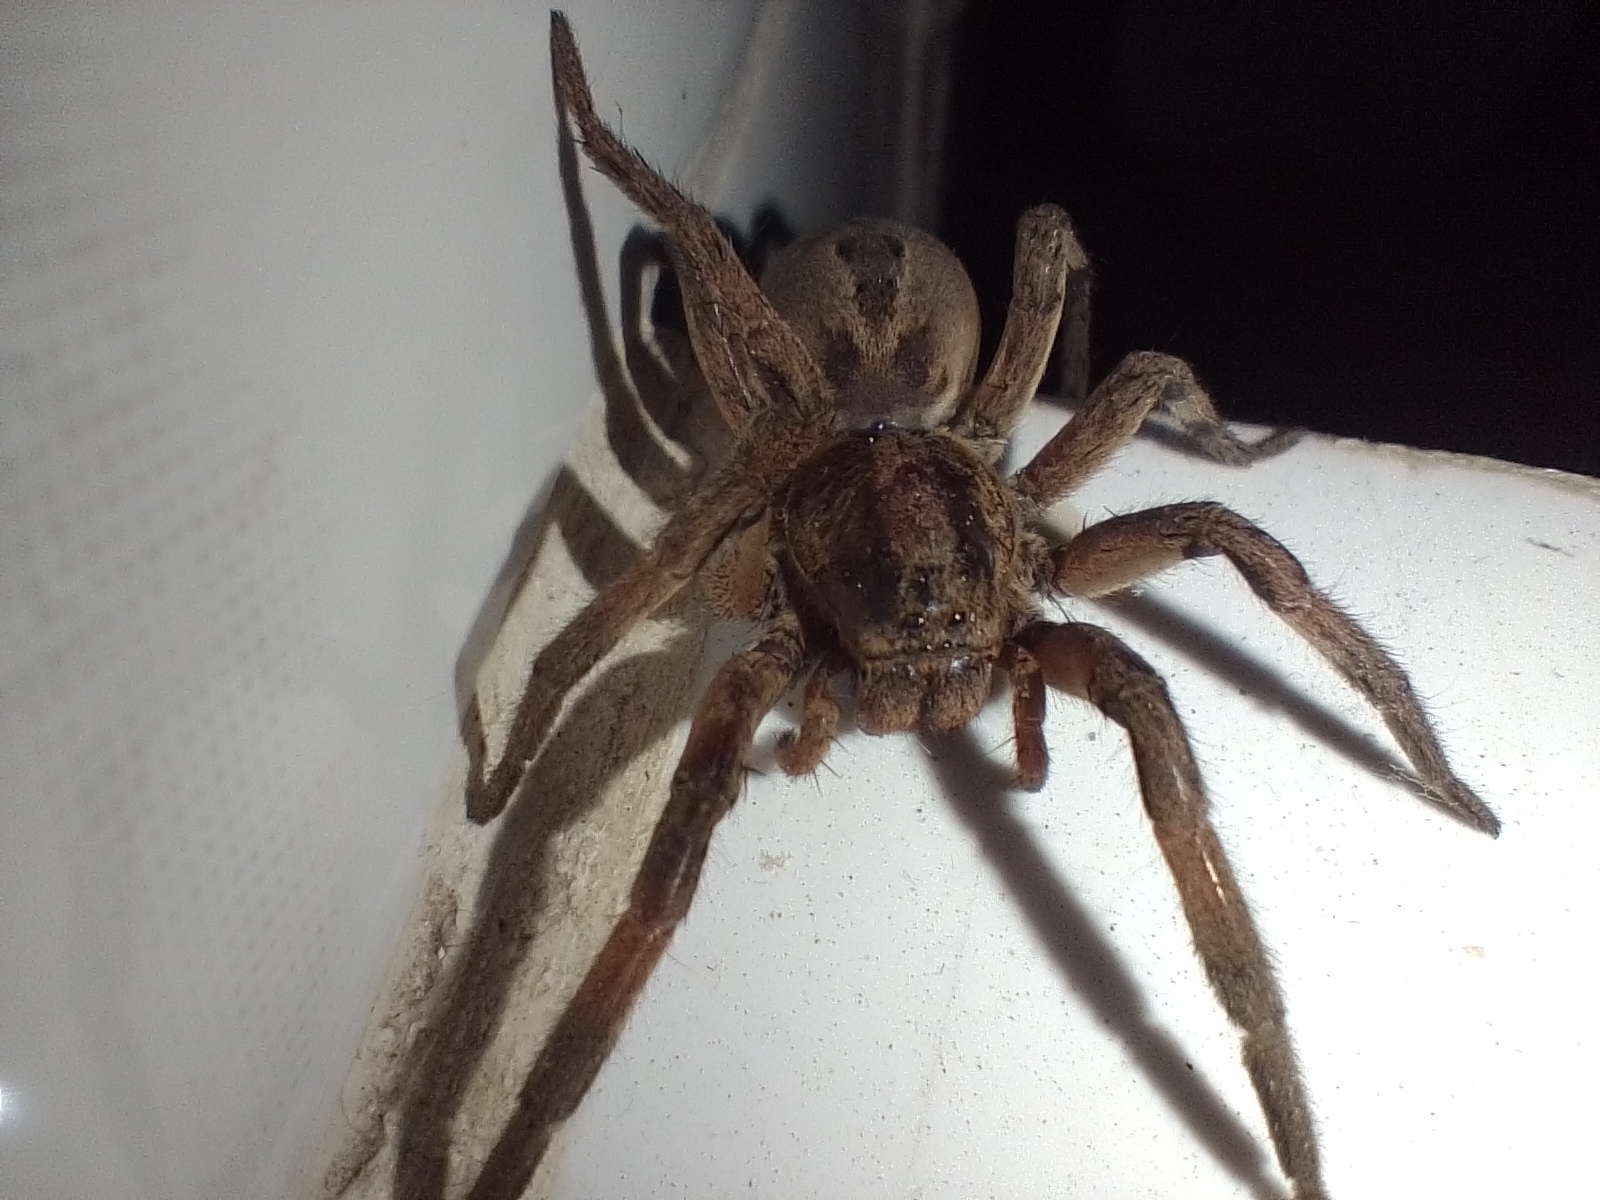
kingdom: Animalia
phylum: Arthropoda
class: Arachnida
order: Araneae
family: Lycosidae
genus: Lycosa
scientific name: Lycosa erythrognatha
